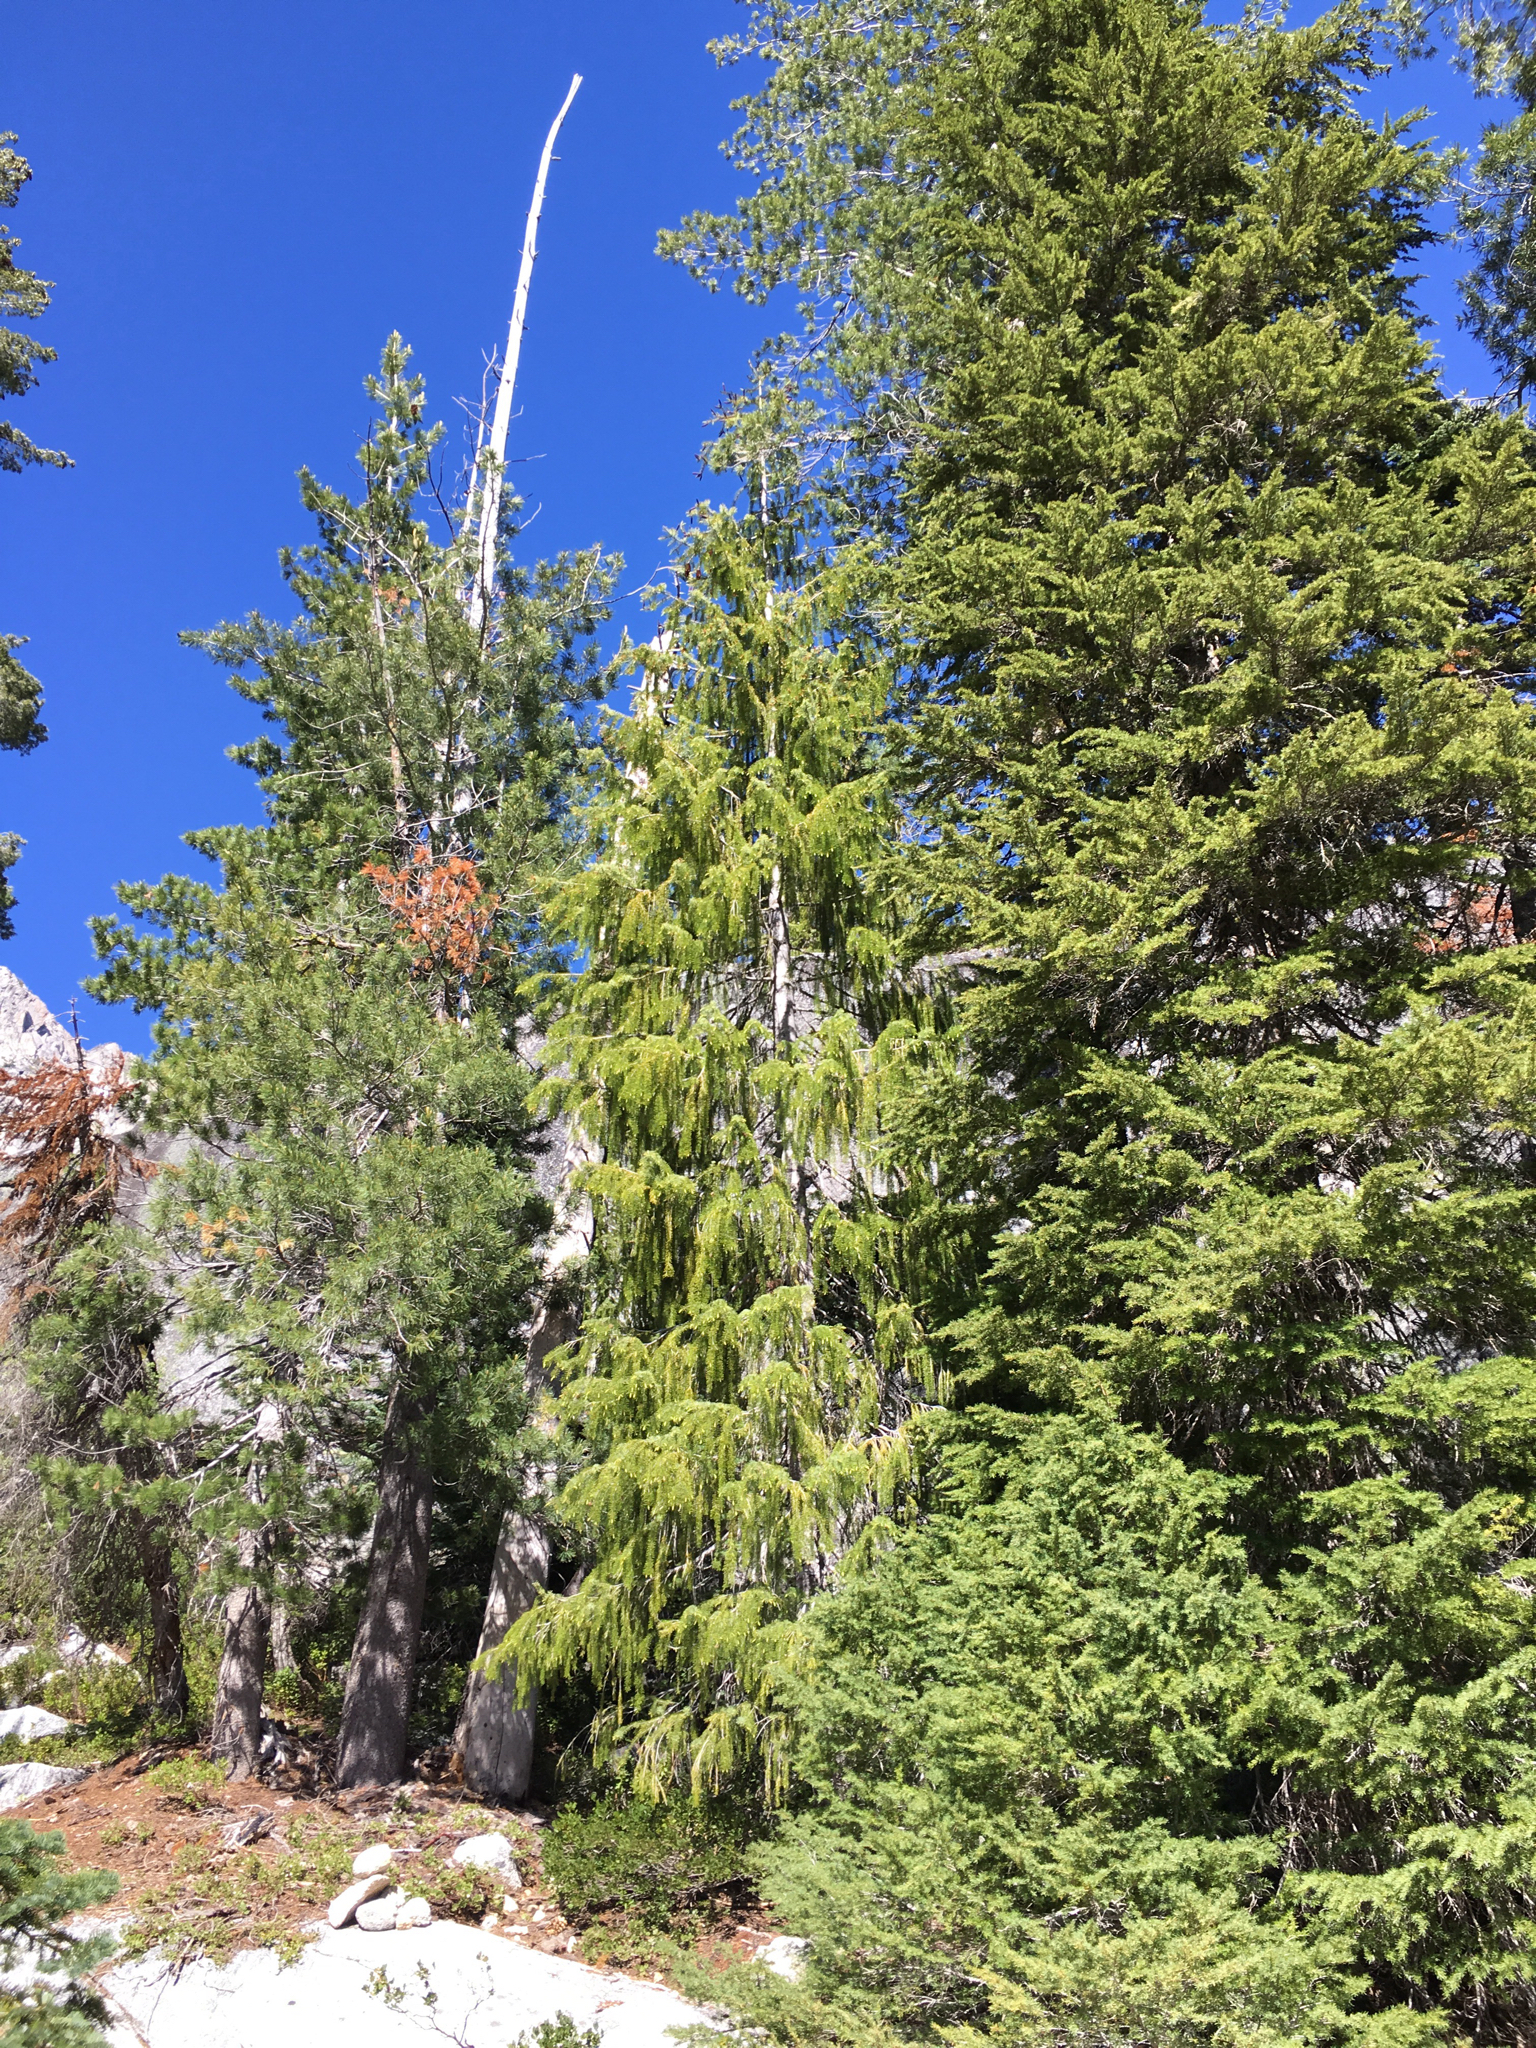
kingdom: Plantae
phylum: Tracheophyta
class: Pinopsida
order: Pinales
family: Pinaceae
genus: Picea
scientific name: Picea breweriana
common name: Brewer's spruce
